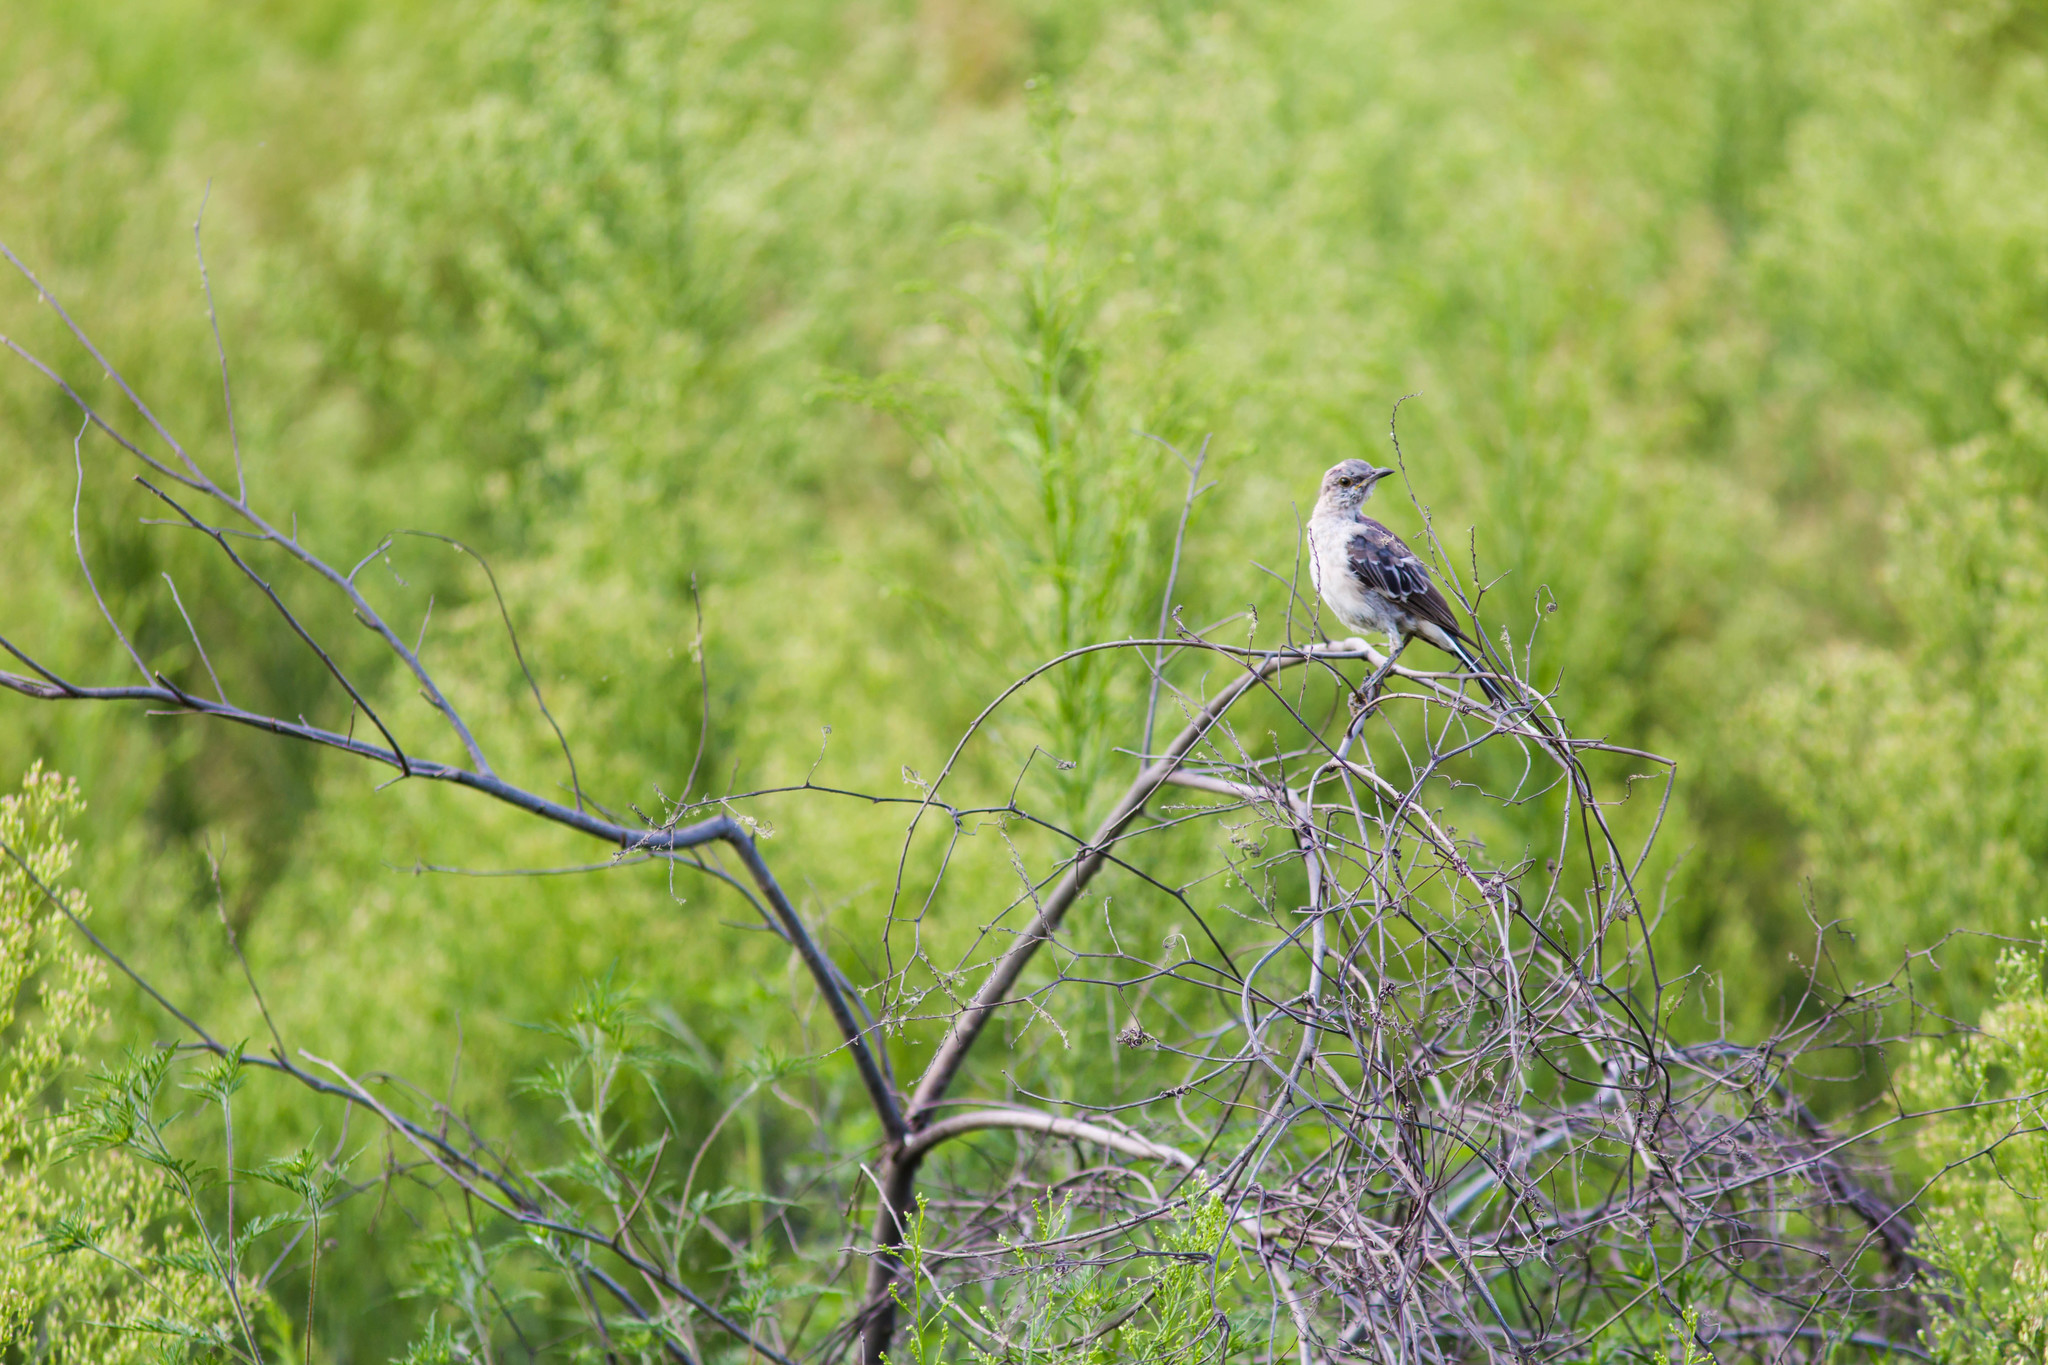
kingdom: Animalia
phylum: Chordata
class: Aves
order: Passeriformes
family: Mimidae
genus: Mimus
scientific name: Mimus polyglottos
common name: Northern mockingbird
